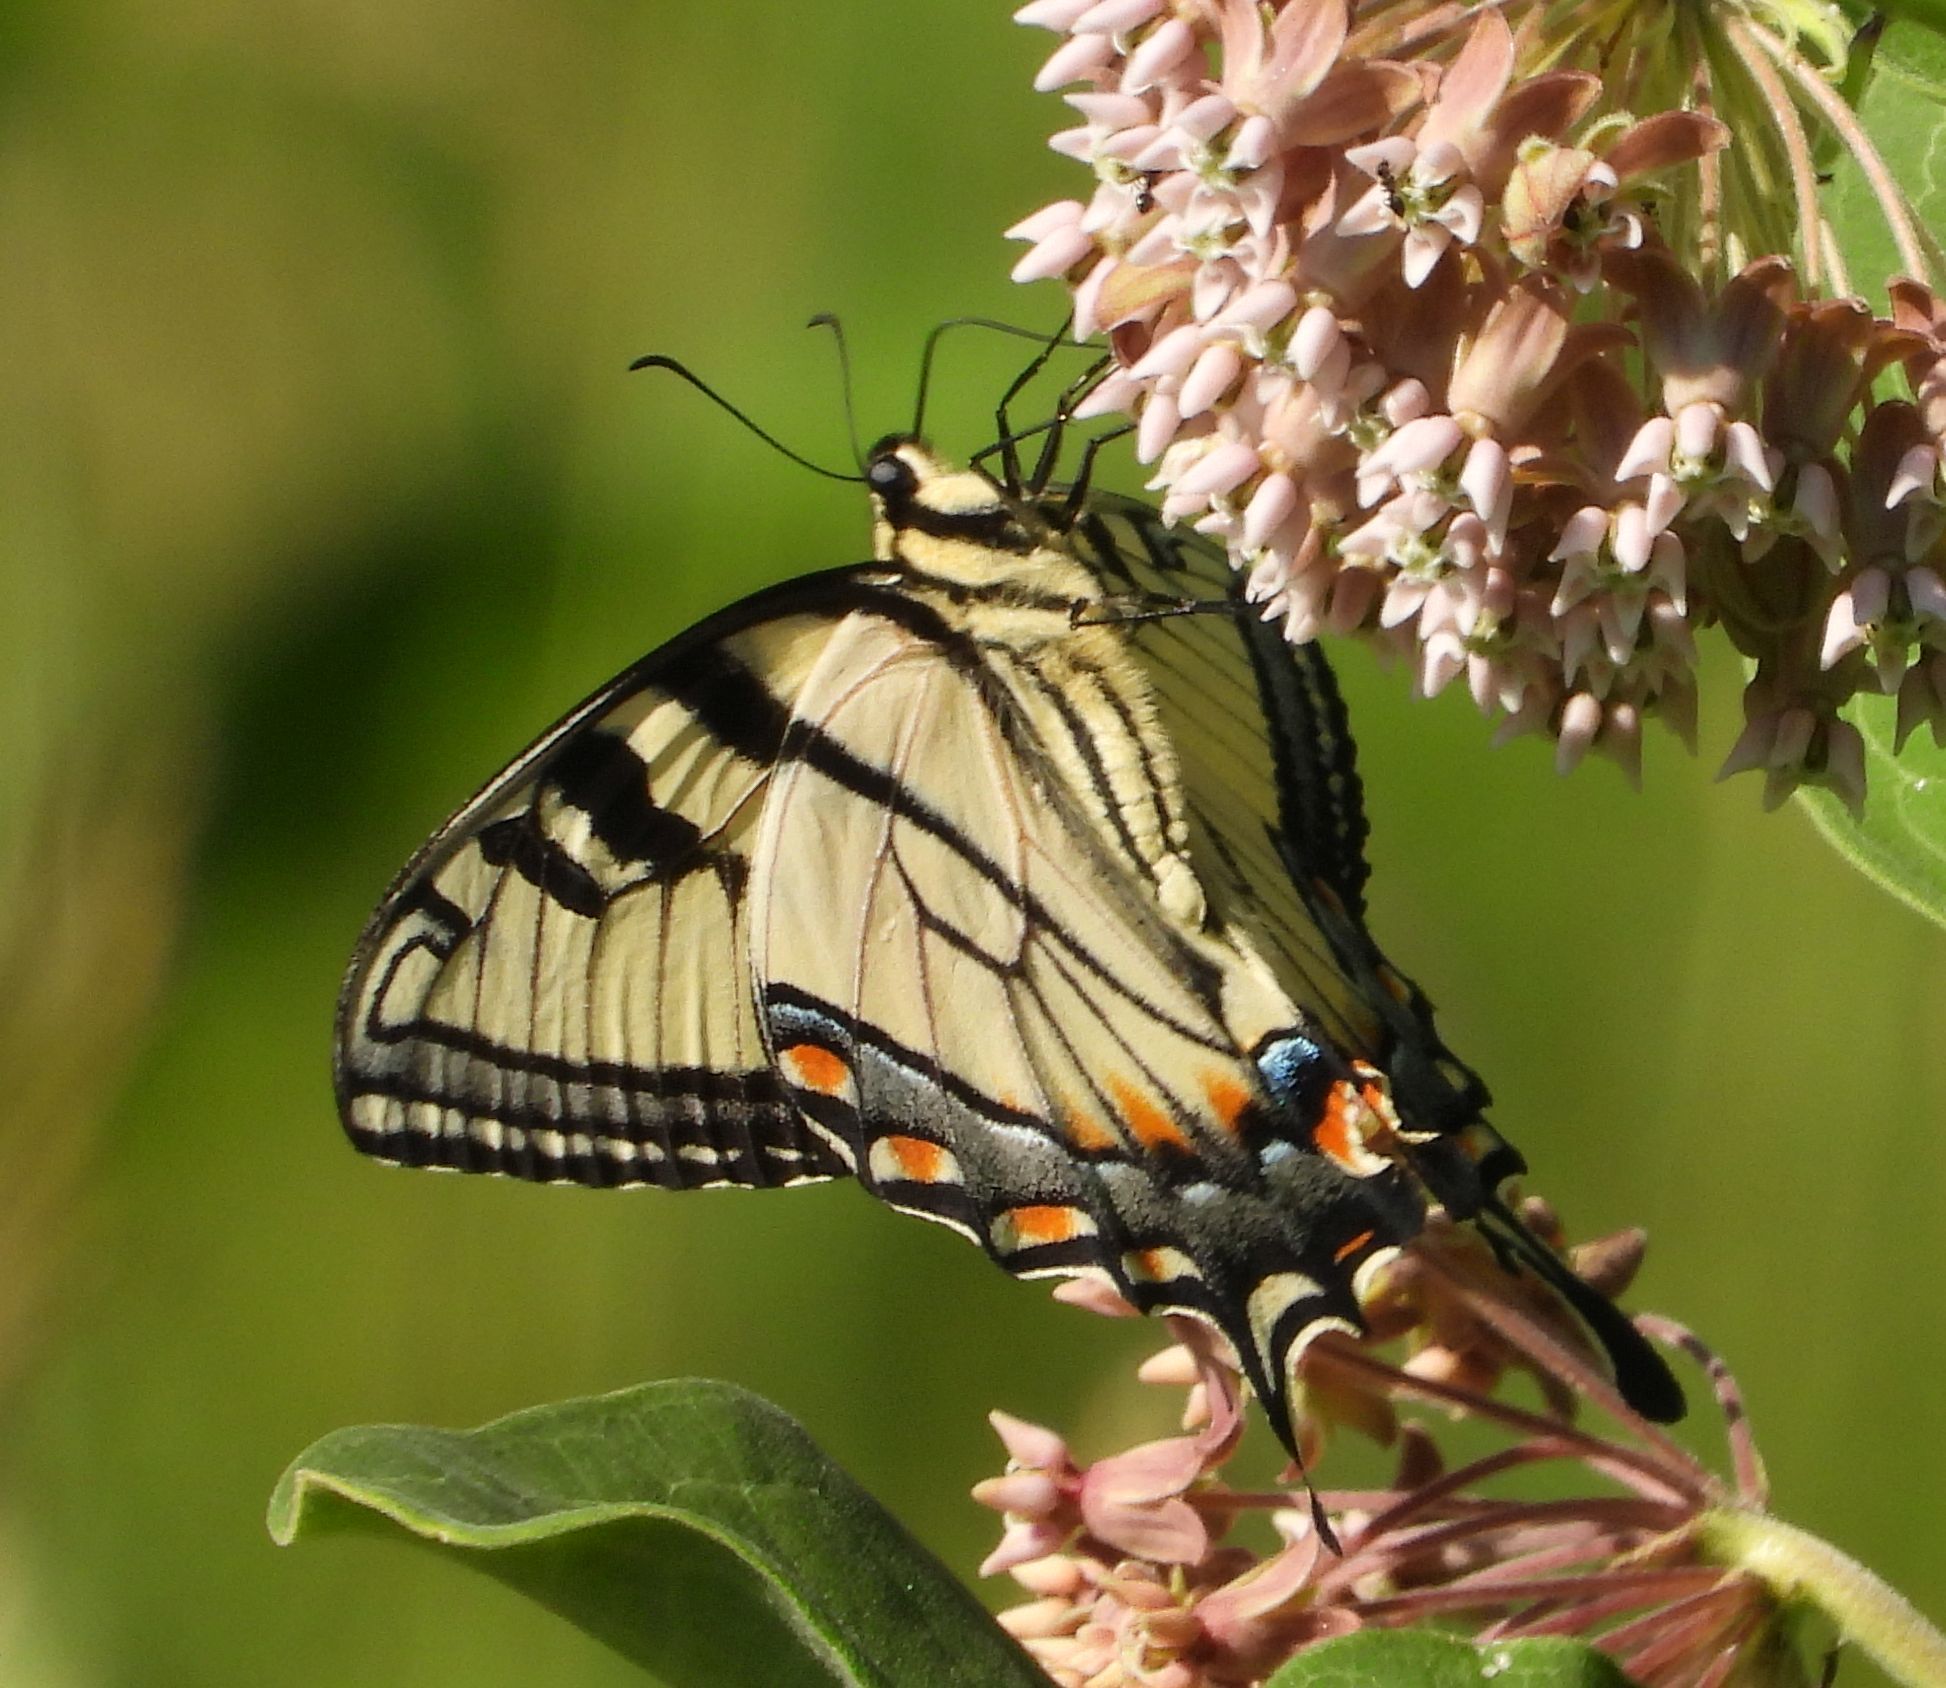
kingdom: Animalia
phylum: Arthropoda
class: Insecta
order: Lepidoptera
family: Papilionidae
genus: Papilio
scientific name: Papilio
